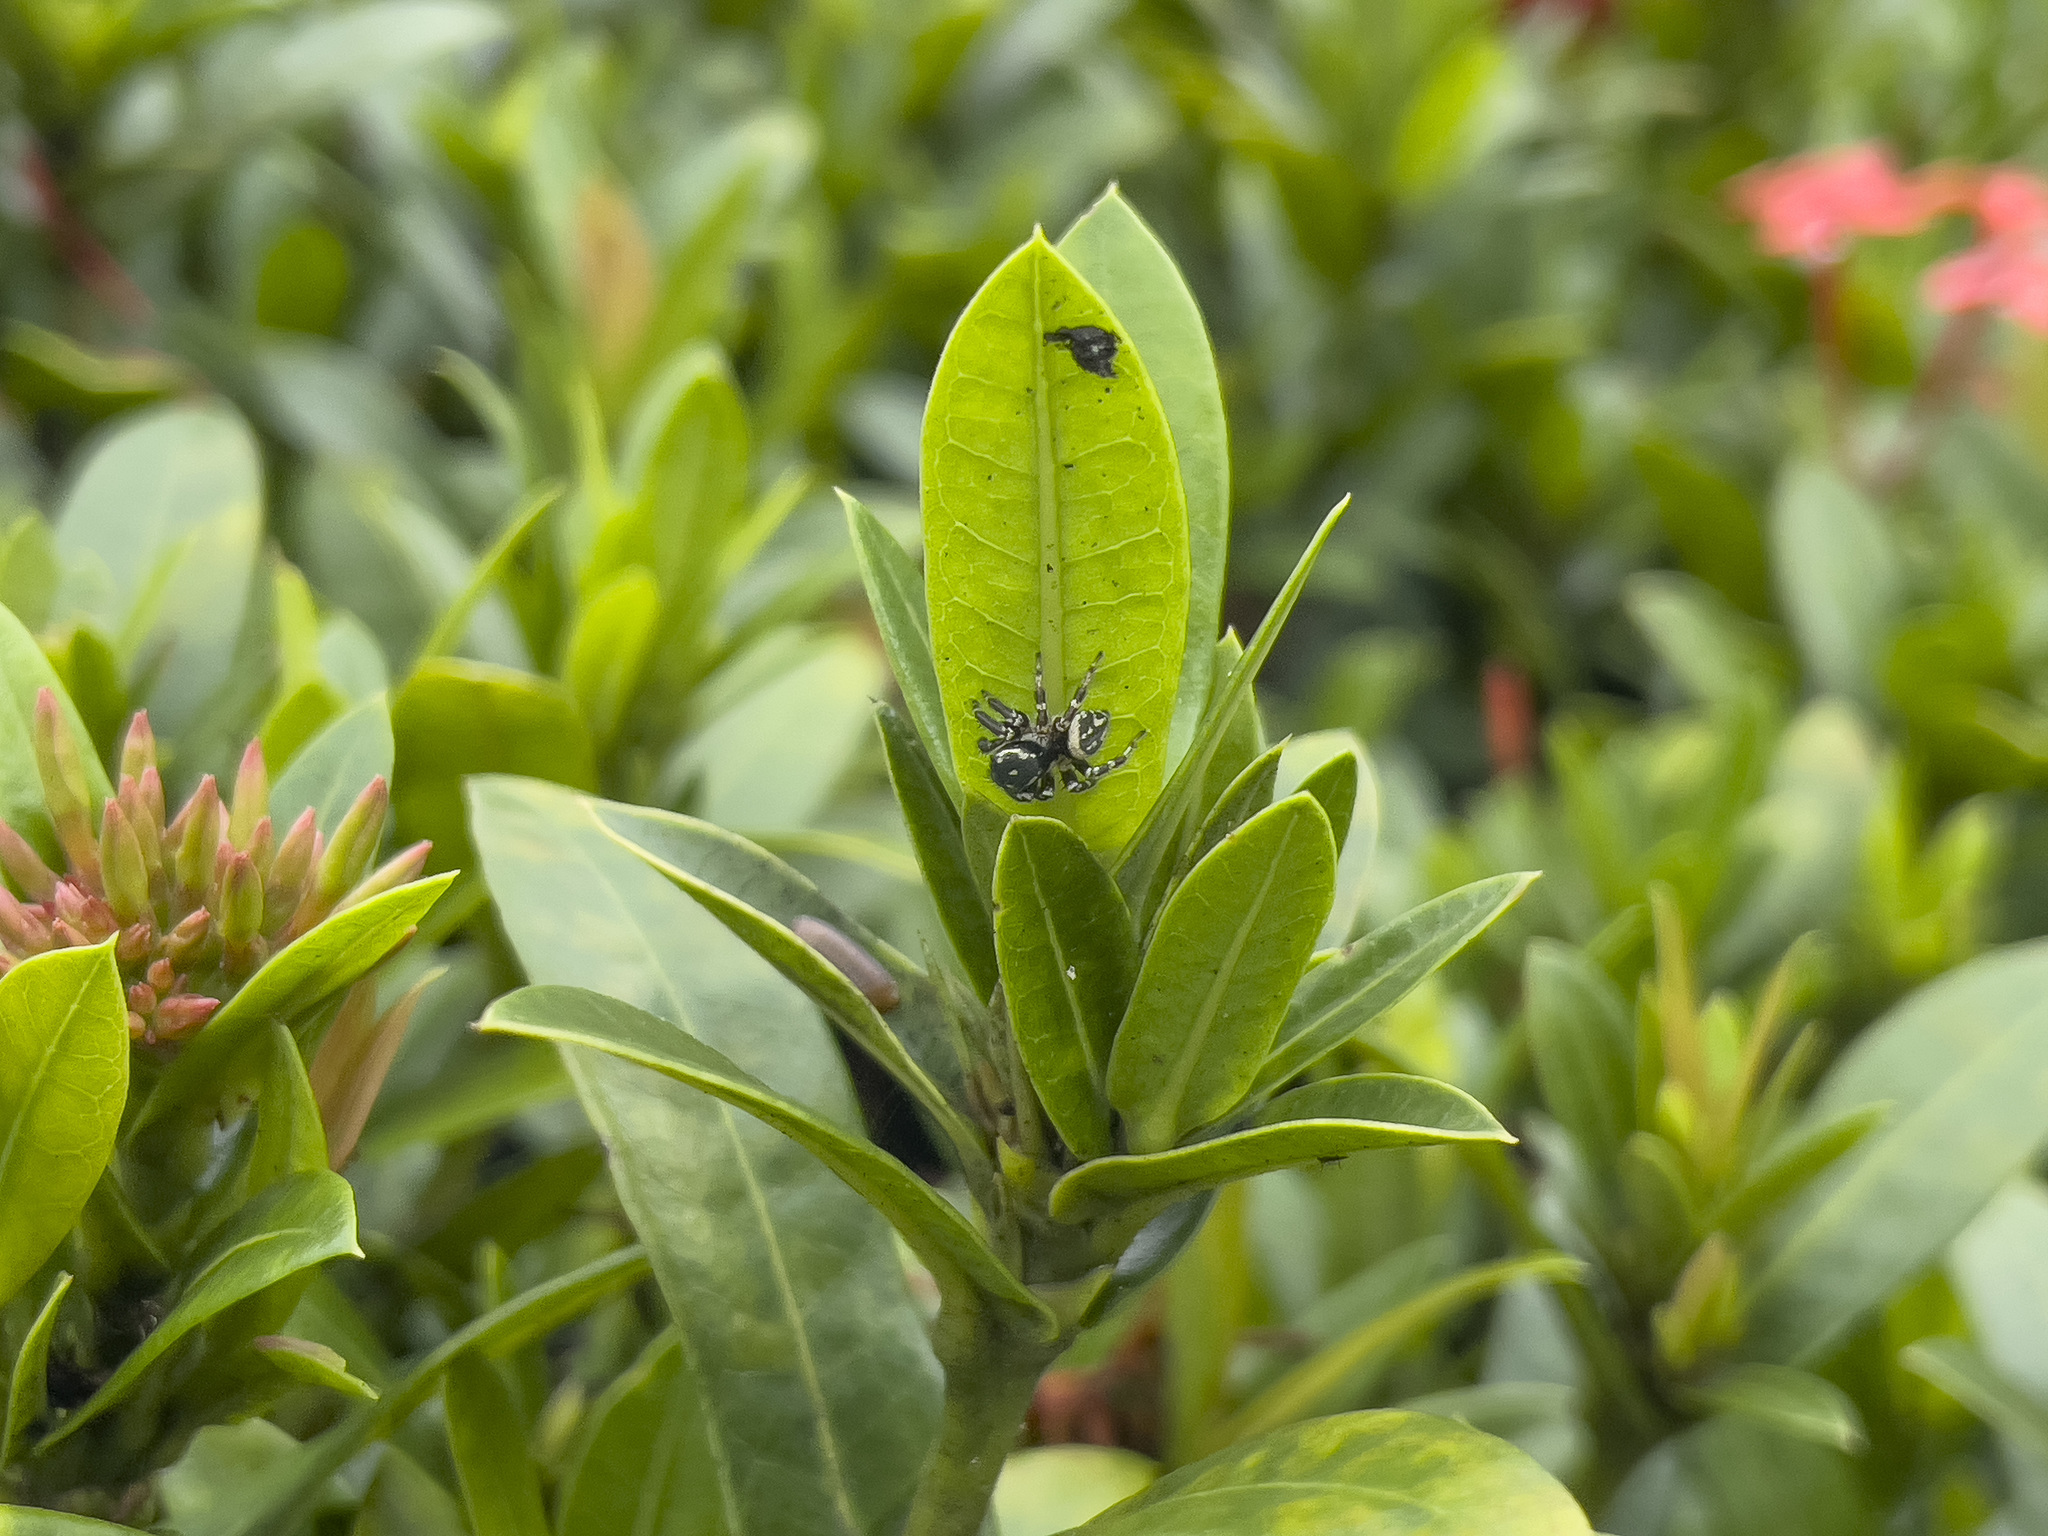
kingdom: Animalia
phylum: Arthropoda
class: Arachnida
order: Araneae
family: Salticidae
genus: Carrhotus
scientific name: Carrhotus sannio
